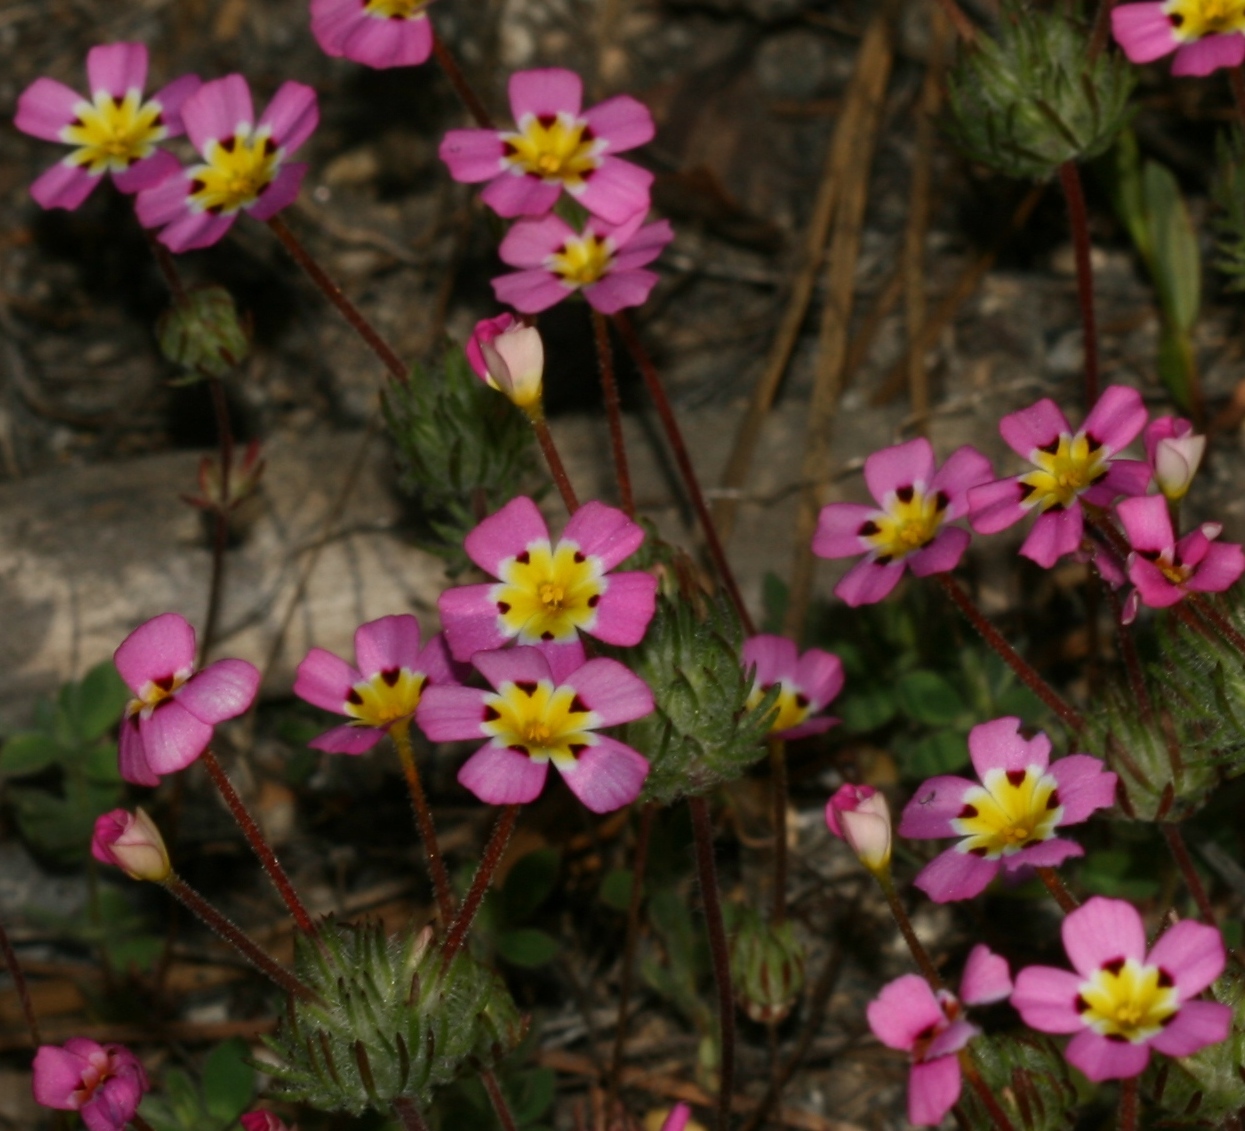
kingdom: Plantae
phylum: Tracheophyta
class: Magnoliopsida
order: Ericales
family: Polemoniaceae
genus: Leptosiphon
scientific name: Leptosiphon ciliatus
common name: Whiskerbrush
